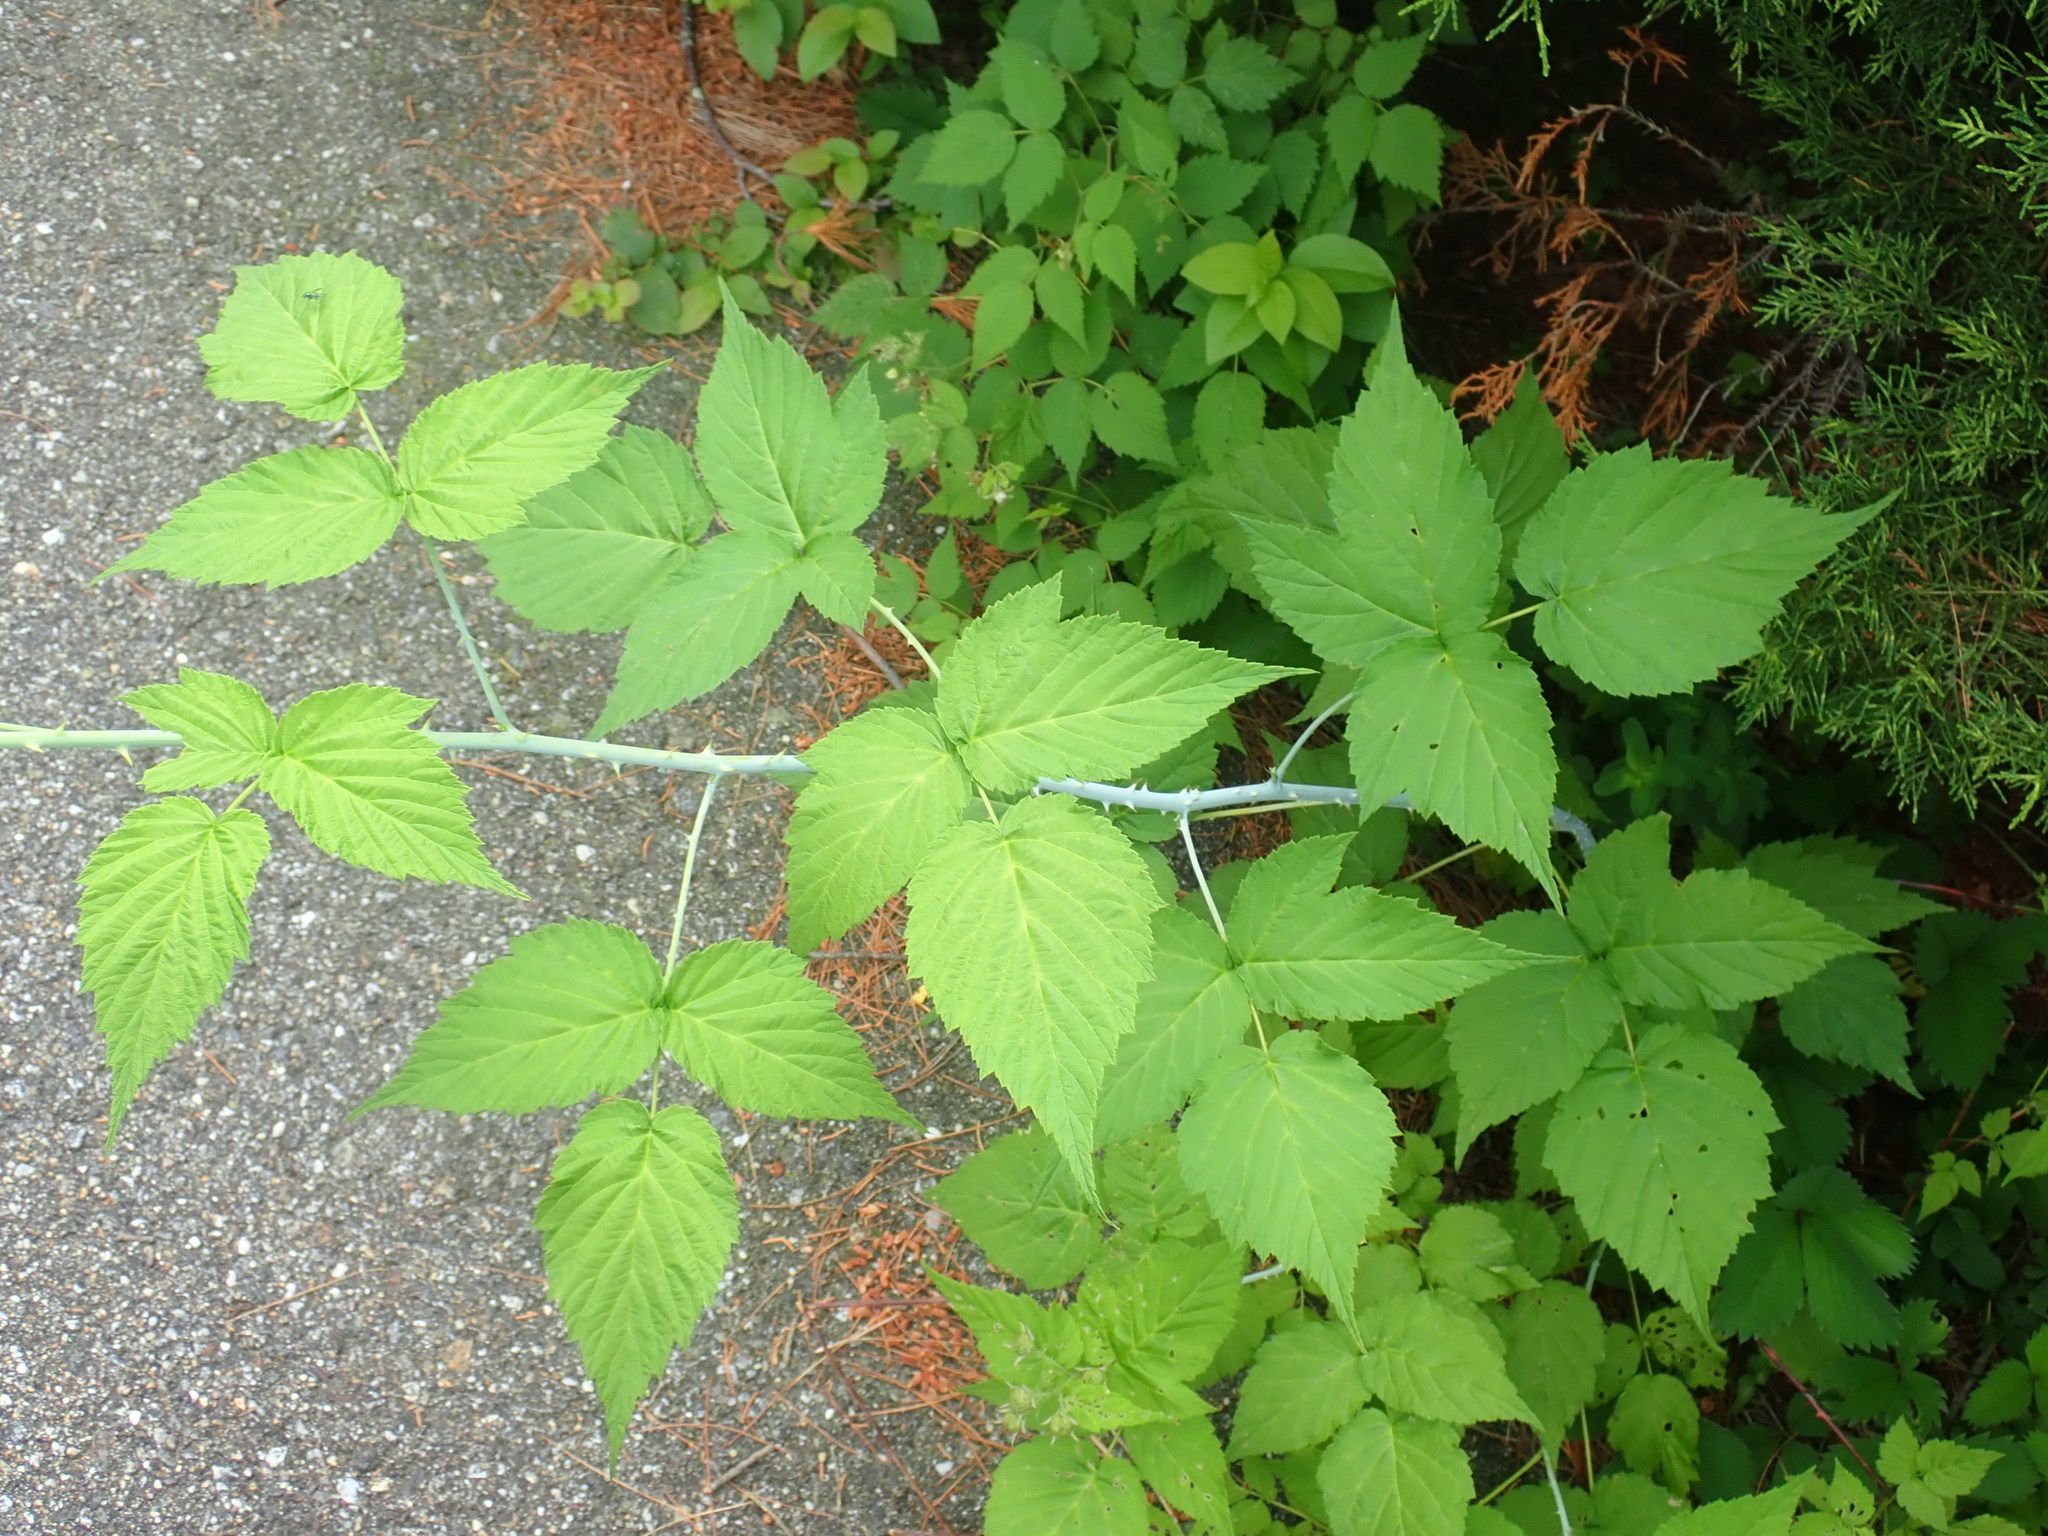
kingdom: Plantae
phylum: Tracheophyta
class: Magnoliopsida
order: Rosales
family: Rosaceae
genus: Rubus
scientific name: Rubus occidentalis
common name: Black raspberry
